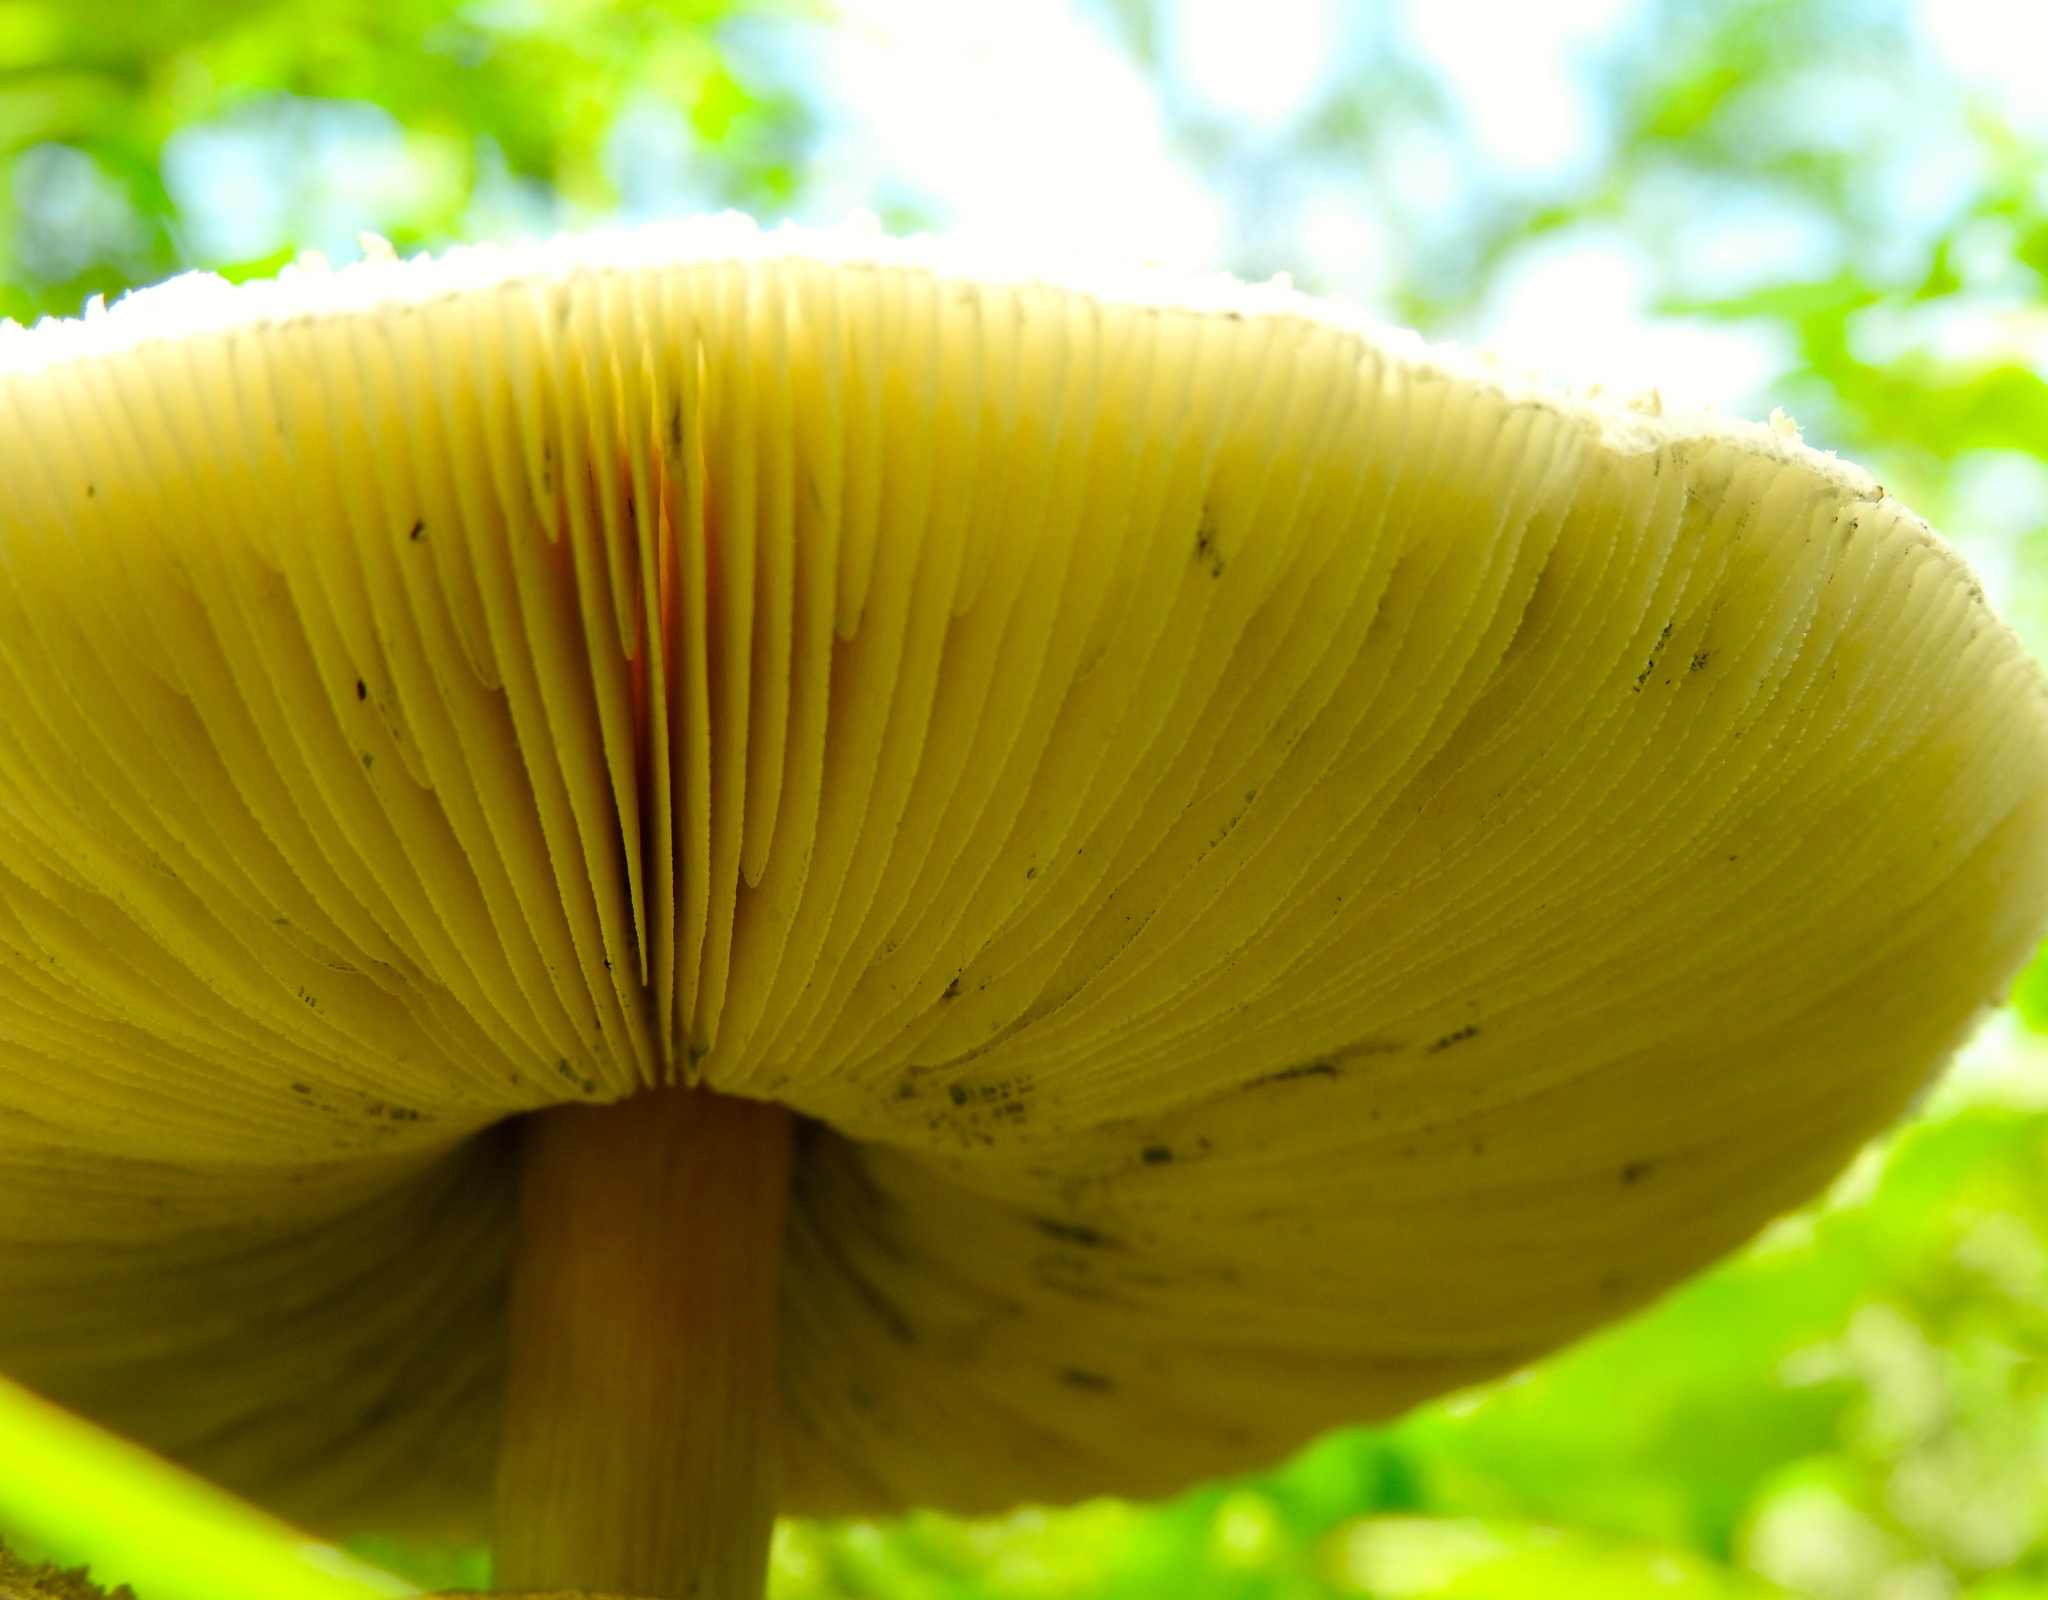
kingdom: Fungi
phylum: Basidiomycota
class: Agaricomycetes
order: Agaricales
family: Agaricaceae
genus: Chlorophyllum
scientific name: Chlorophyllum molybdites
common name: False parasol
